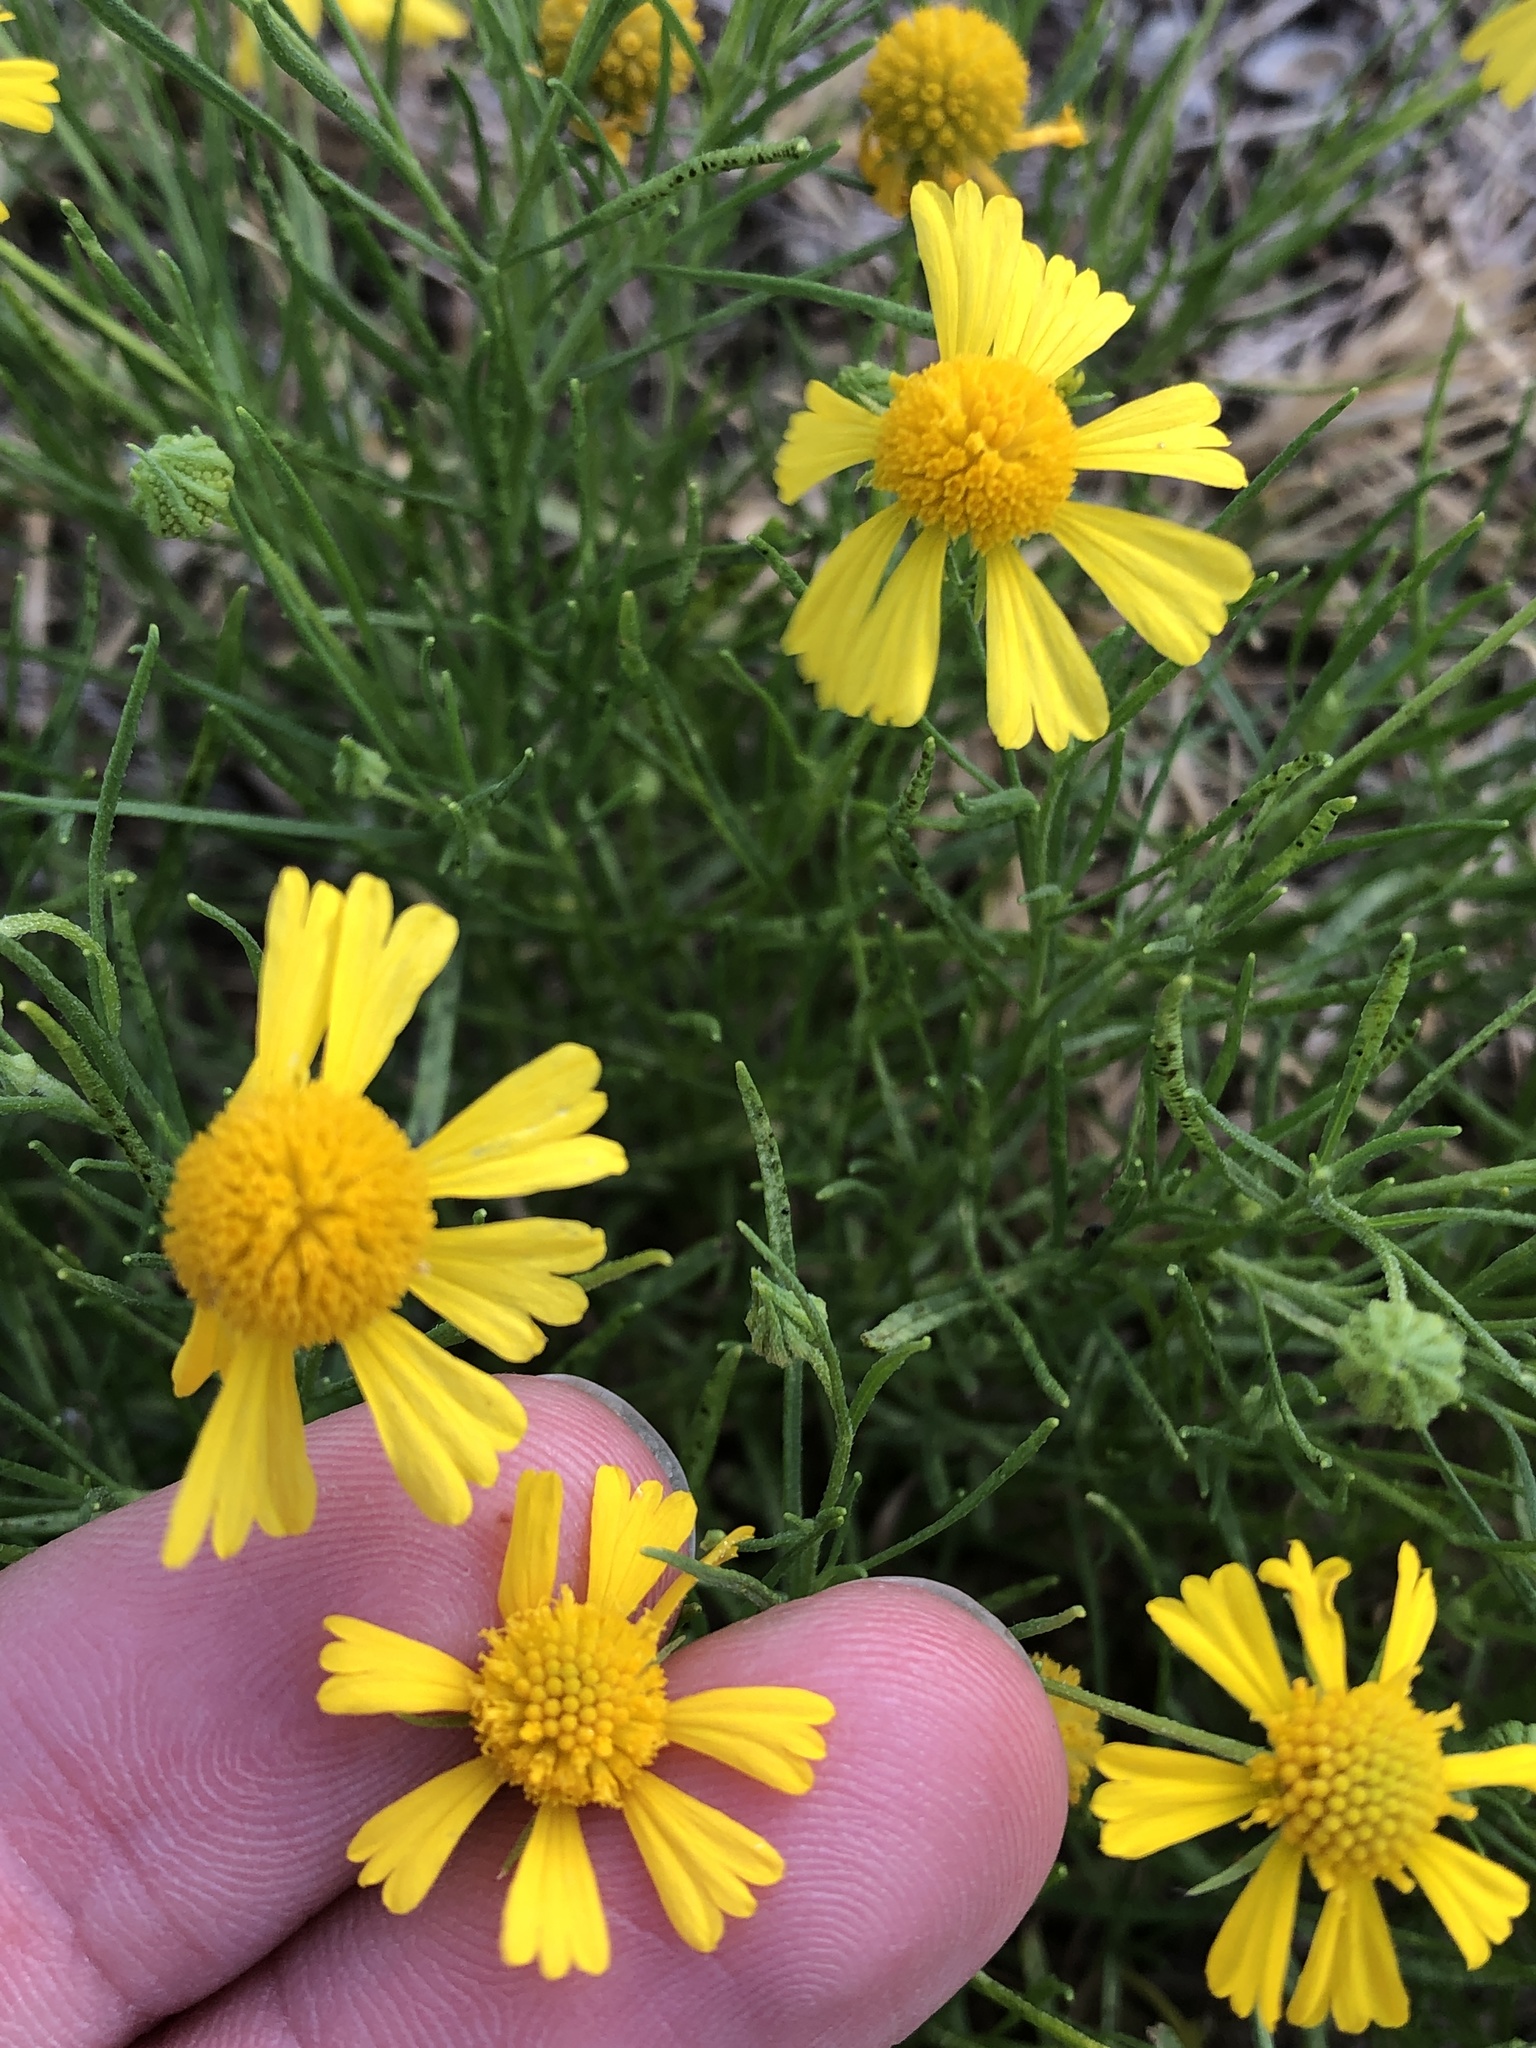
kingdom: Plantae
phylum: Tracheophyta
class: Magnoliopsida
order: Asterales
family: Asteraceae
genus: Helenium
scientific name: Helenium amarum
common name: Bitter sneezeweed
